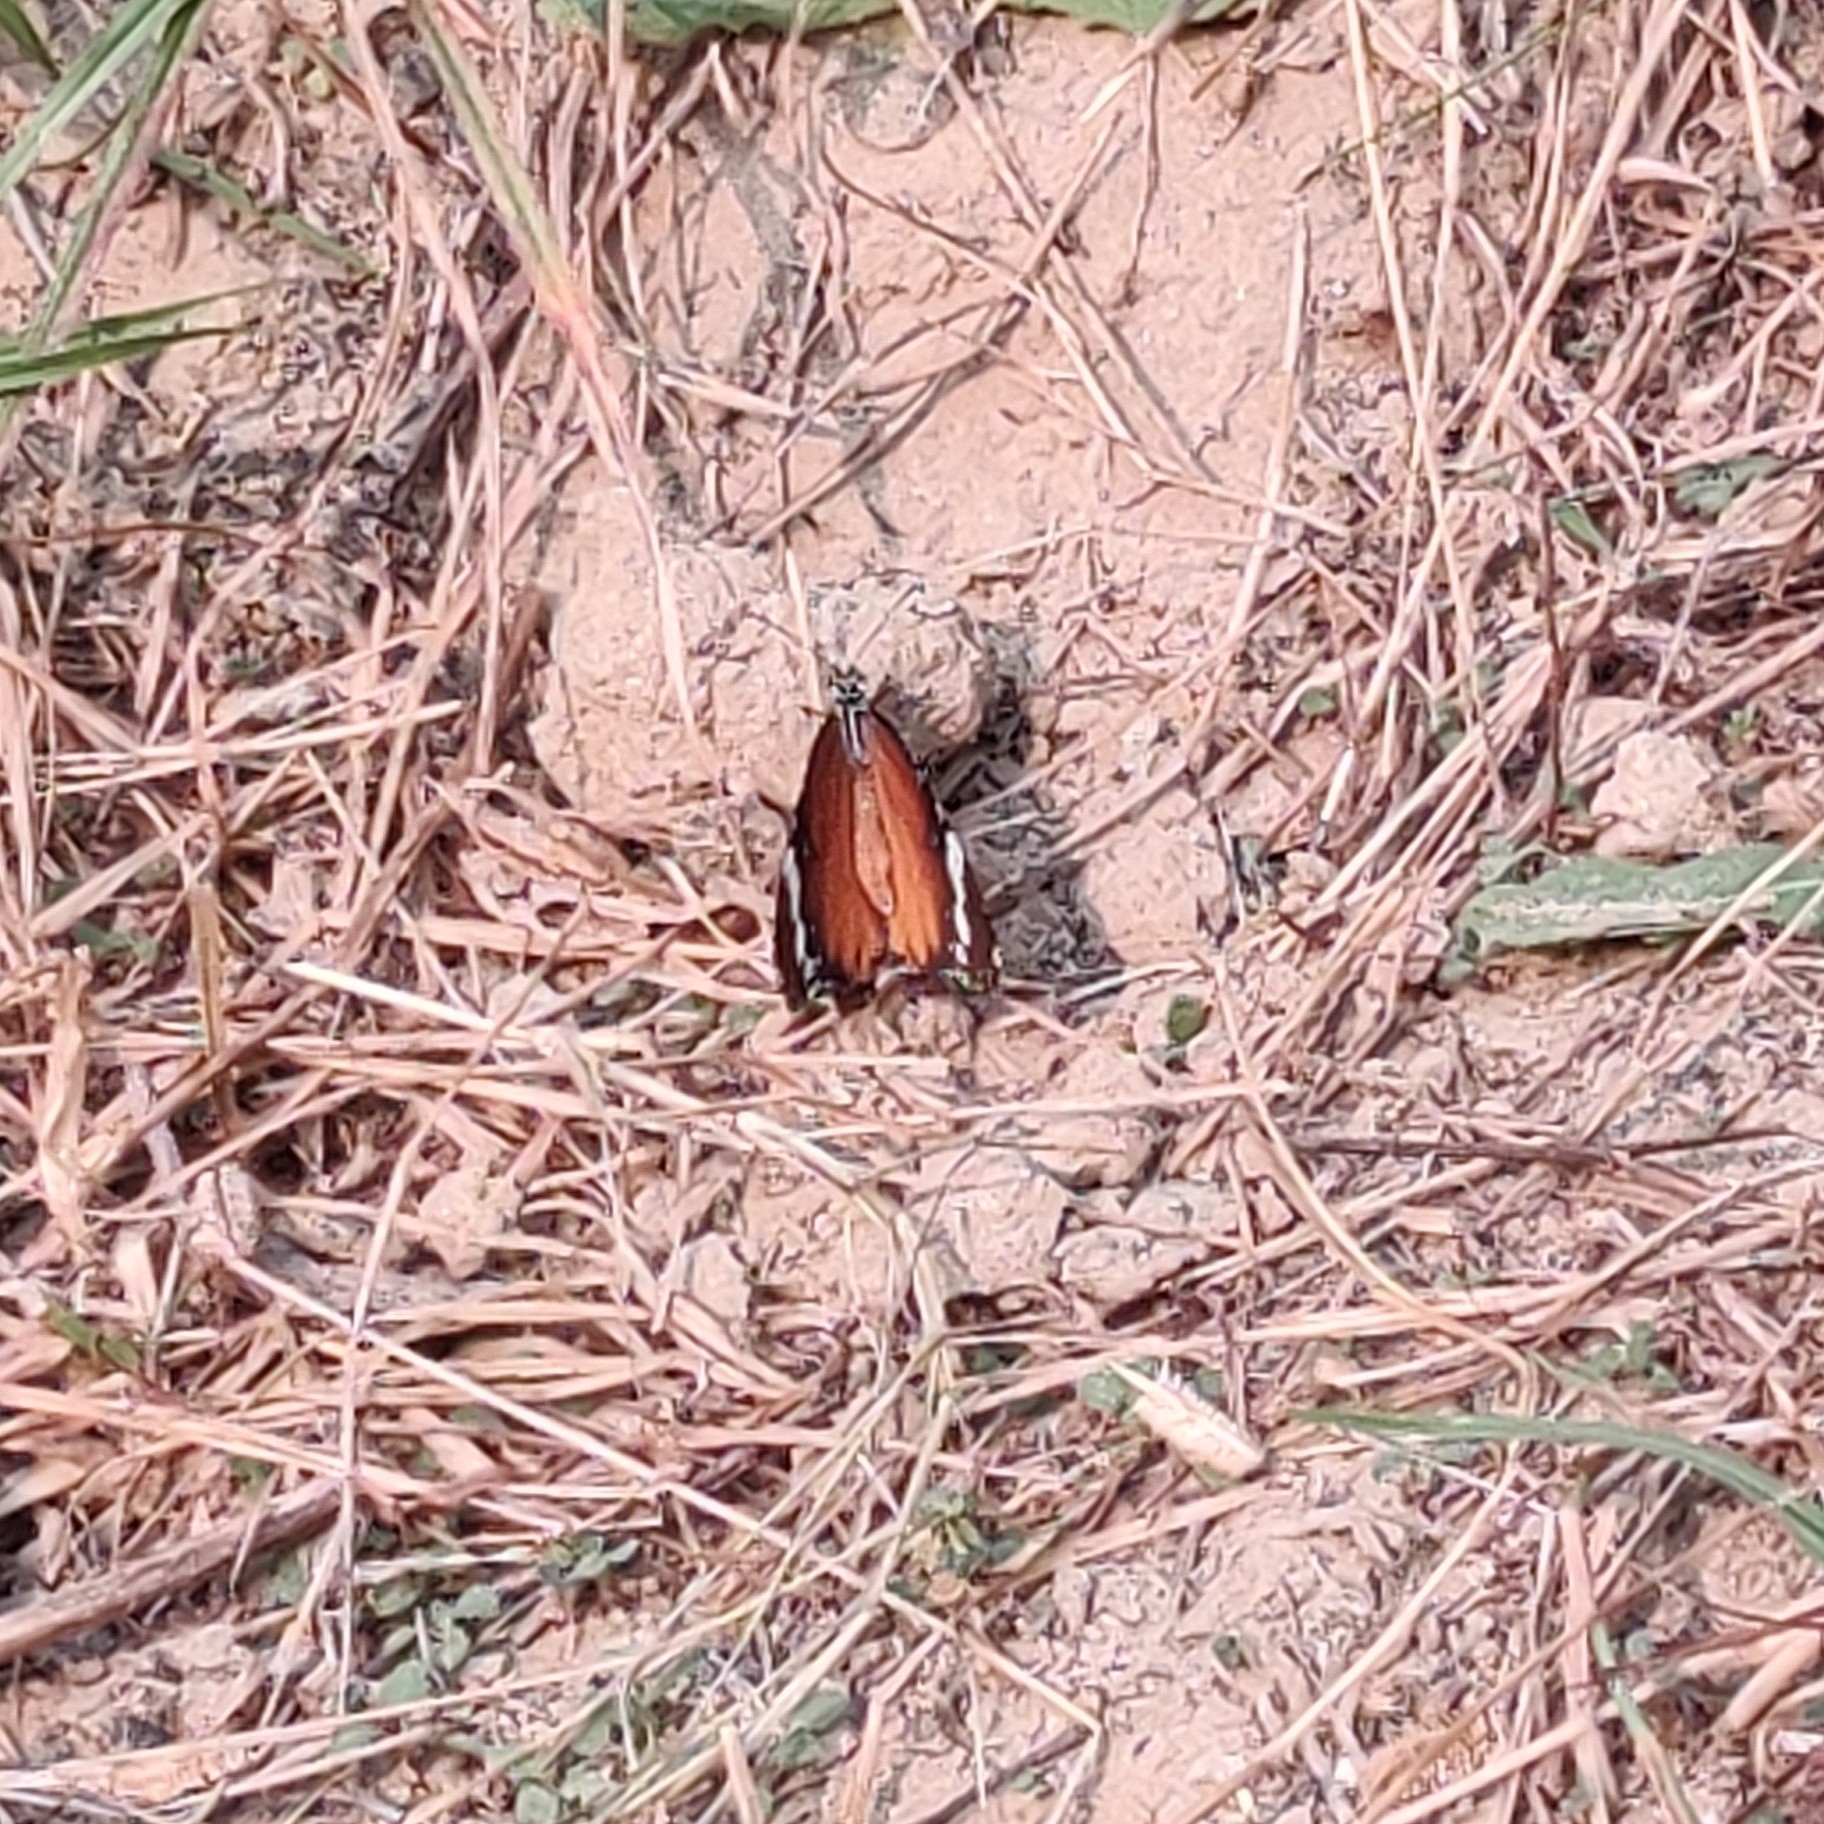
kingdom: Animalia
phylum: Arthropoda
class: Insecta
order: Lepidoptera
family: Nymphalidae
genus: Danaus
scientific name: Danaus chrysippus
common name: Plain tiger
